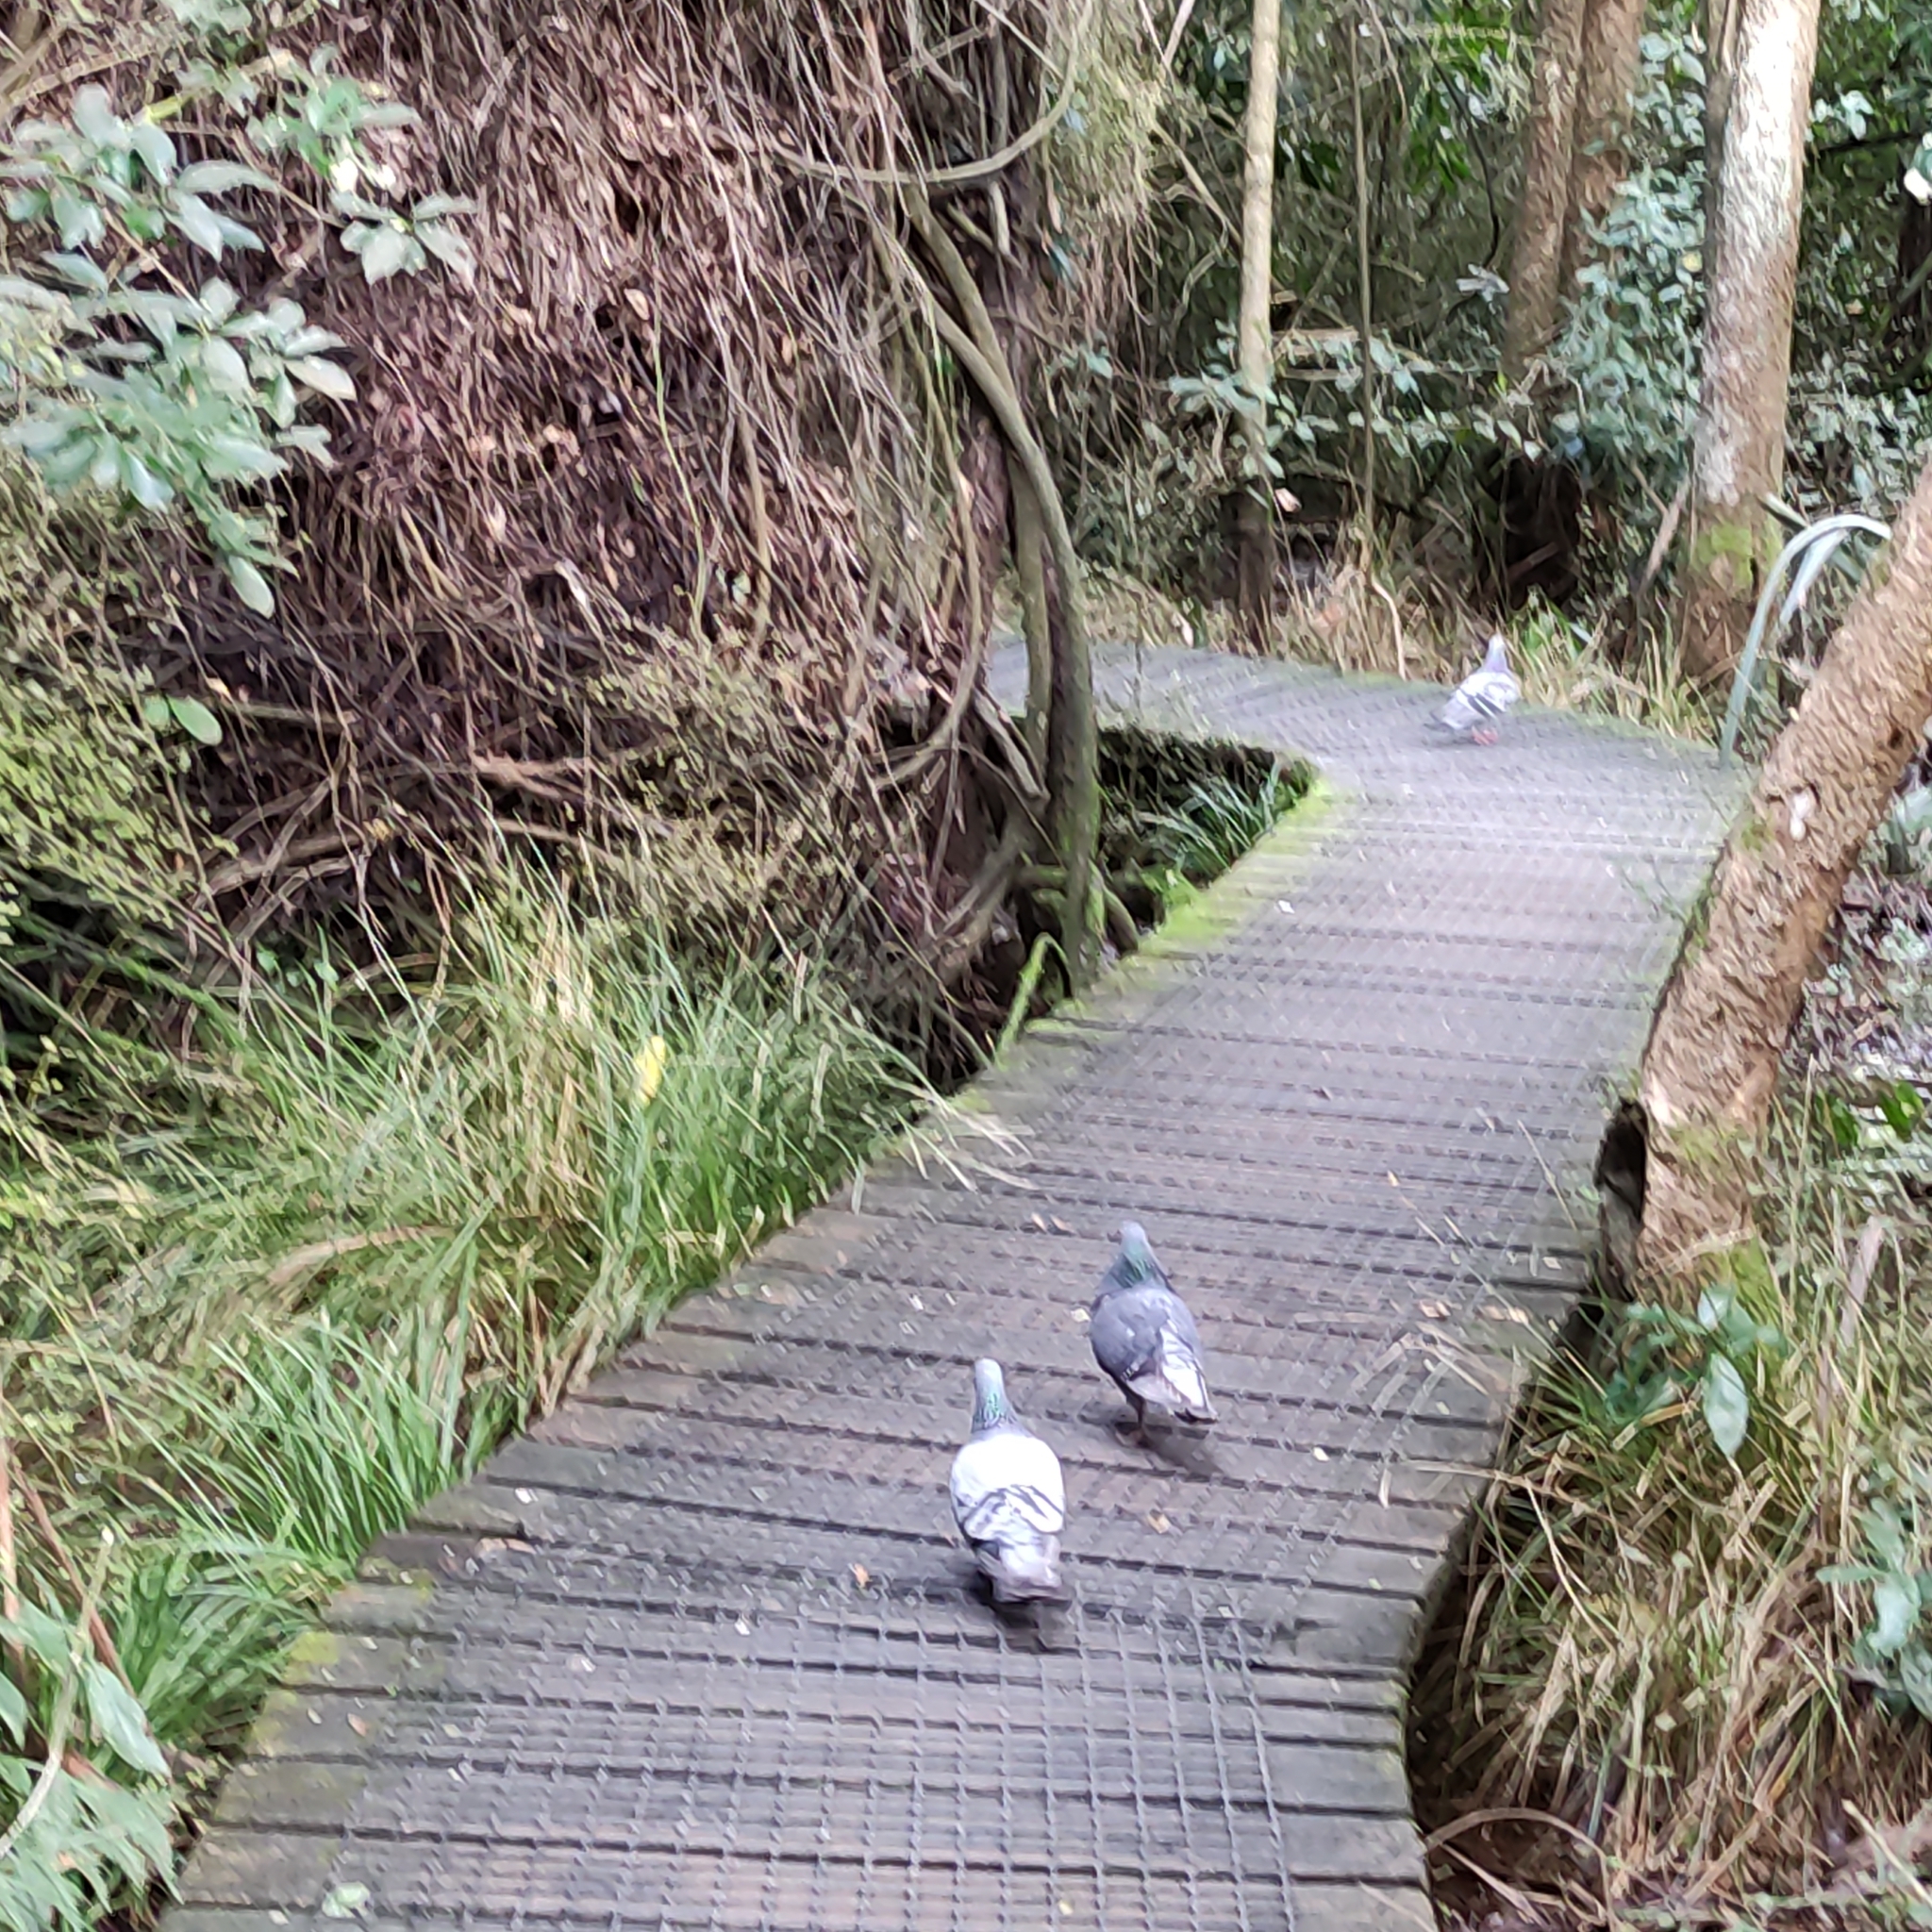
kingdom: Animalia
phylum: Chordata
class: Aves
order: Columbiformes
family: Columbidae
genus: Columba
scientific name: Columba livia
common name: Rock pigeon
